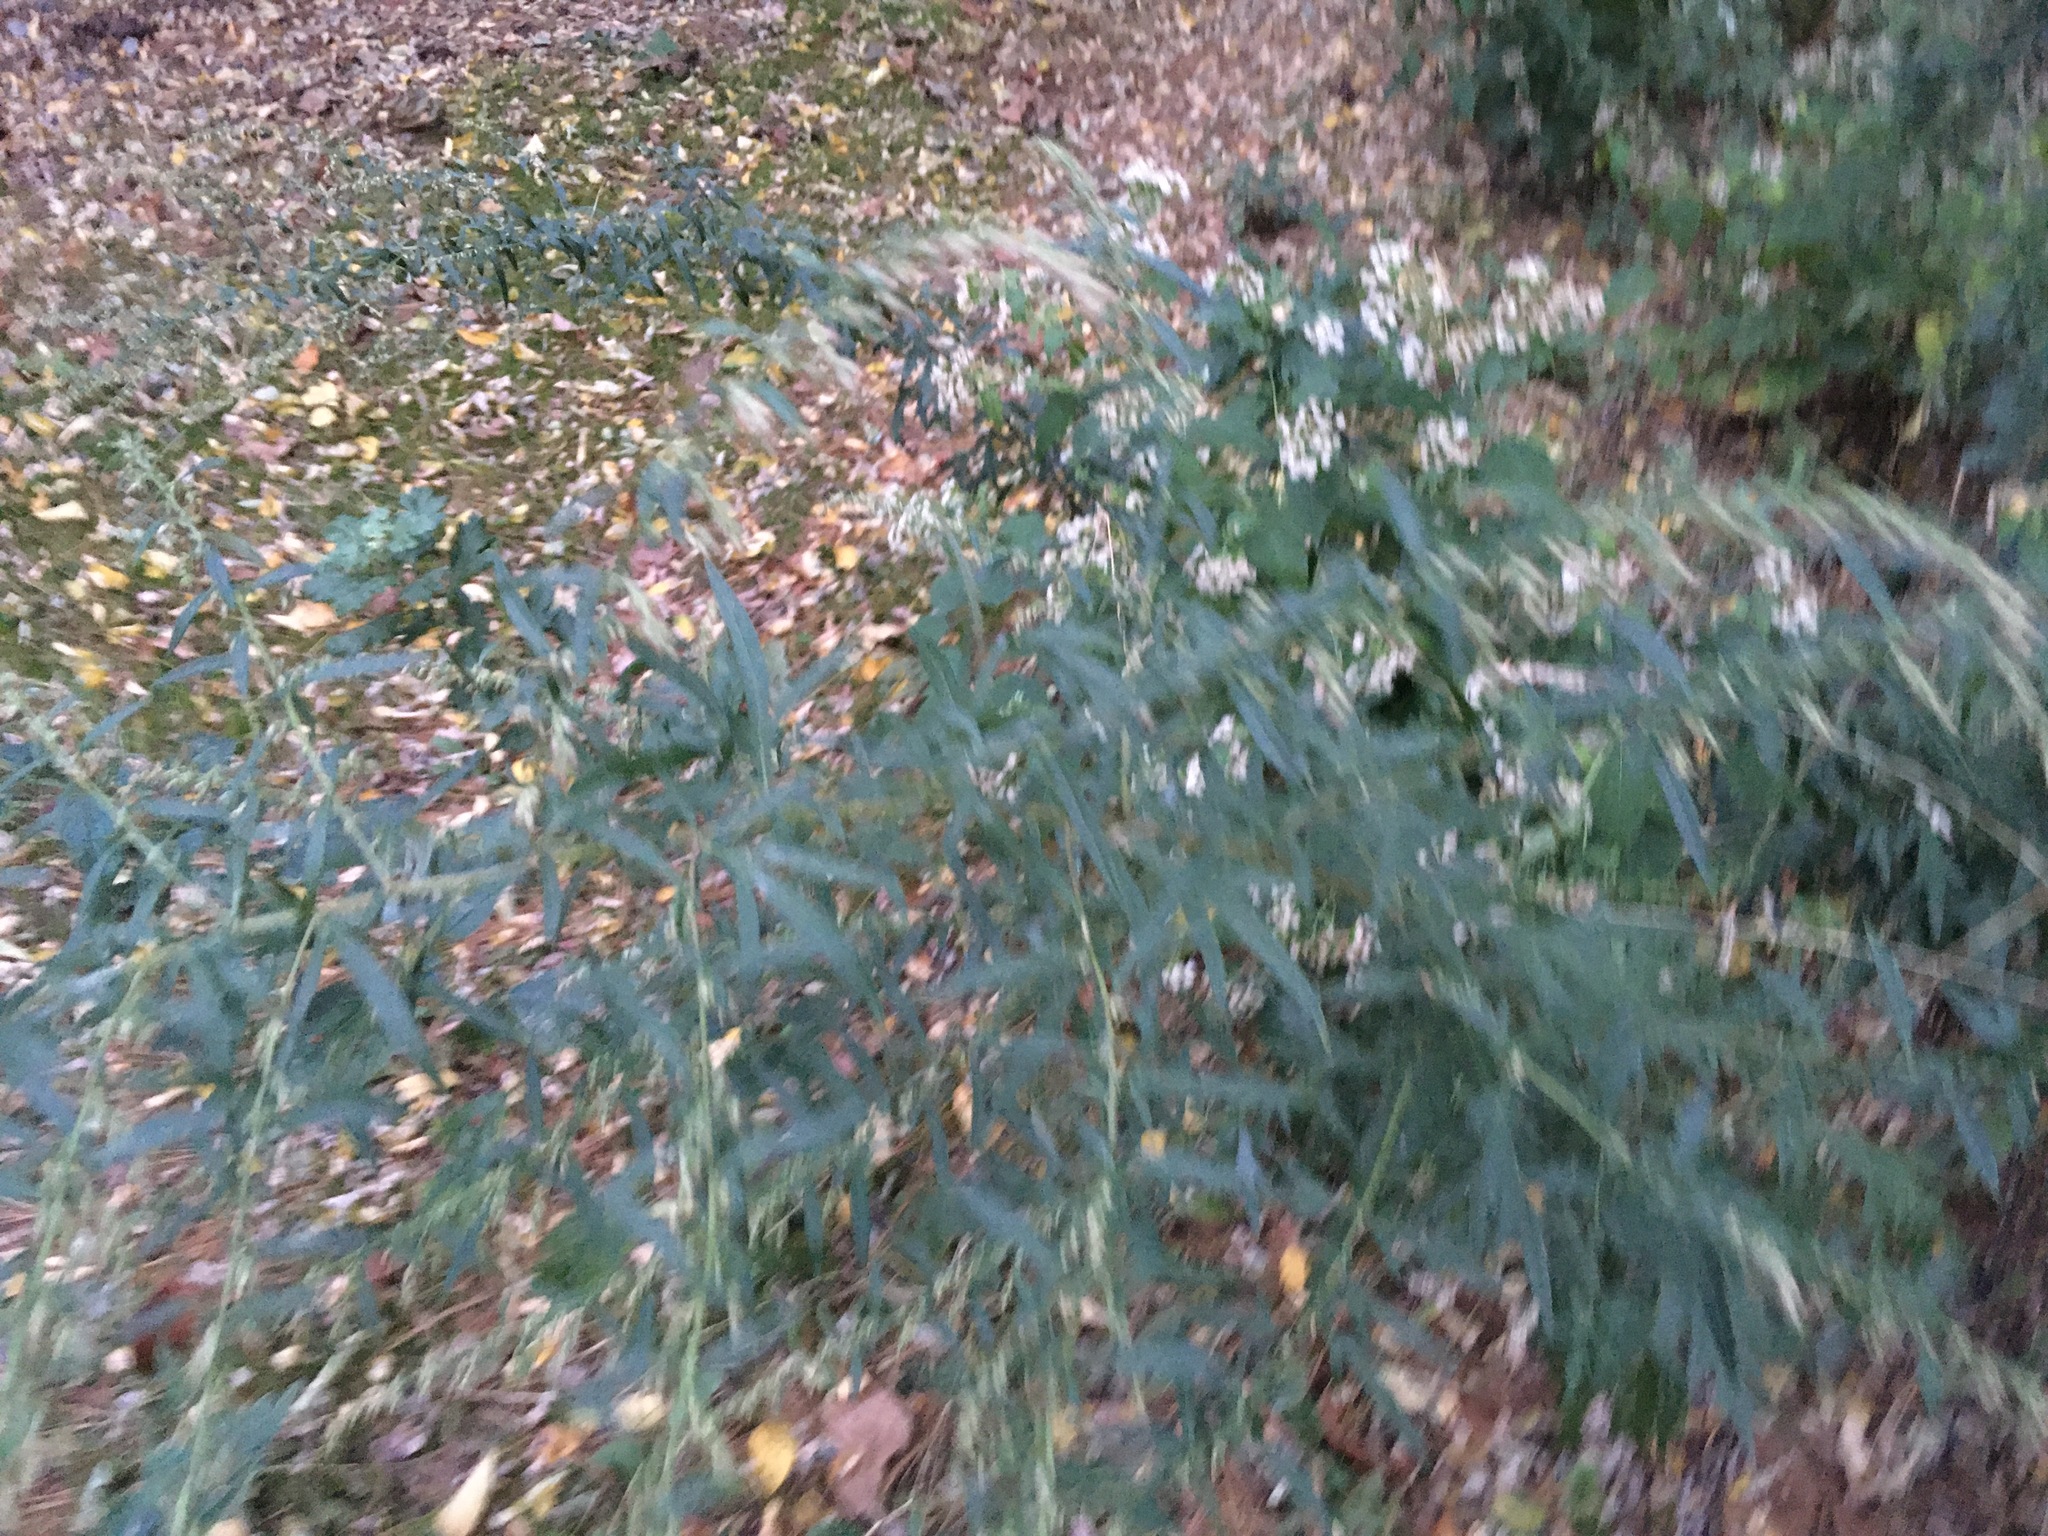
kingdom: Plantae
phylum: Tracheophyta
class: Magnoliopsida
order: Asterales
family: Asteraceae
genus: Artemisia
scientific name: Artemisia vulgaris
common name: Mugwort
